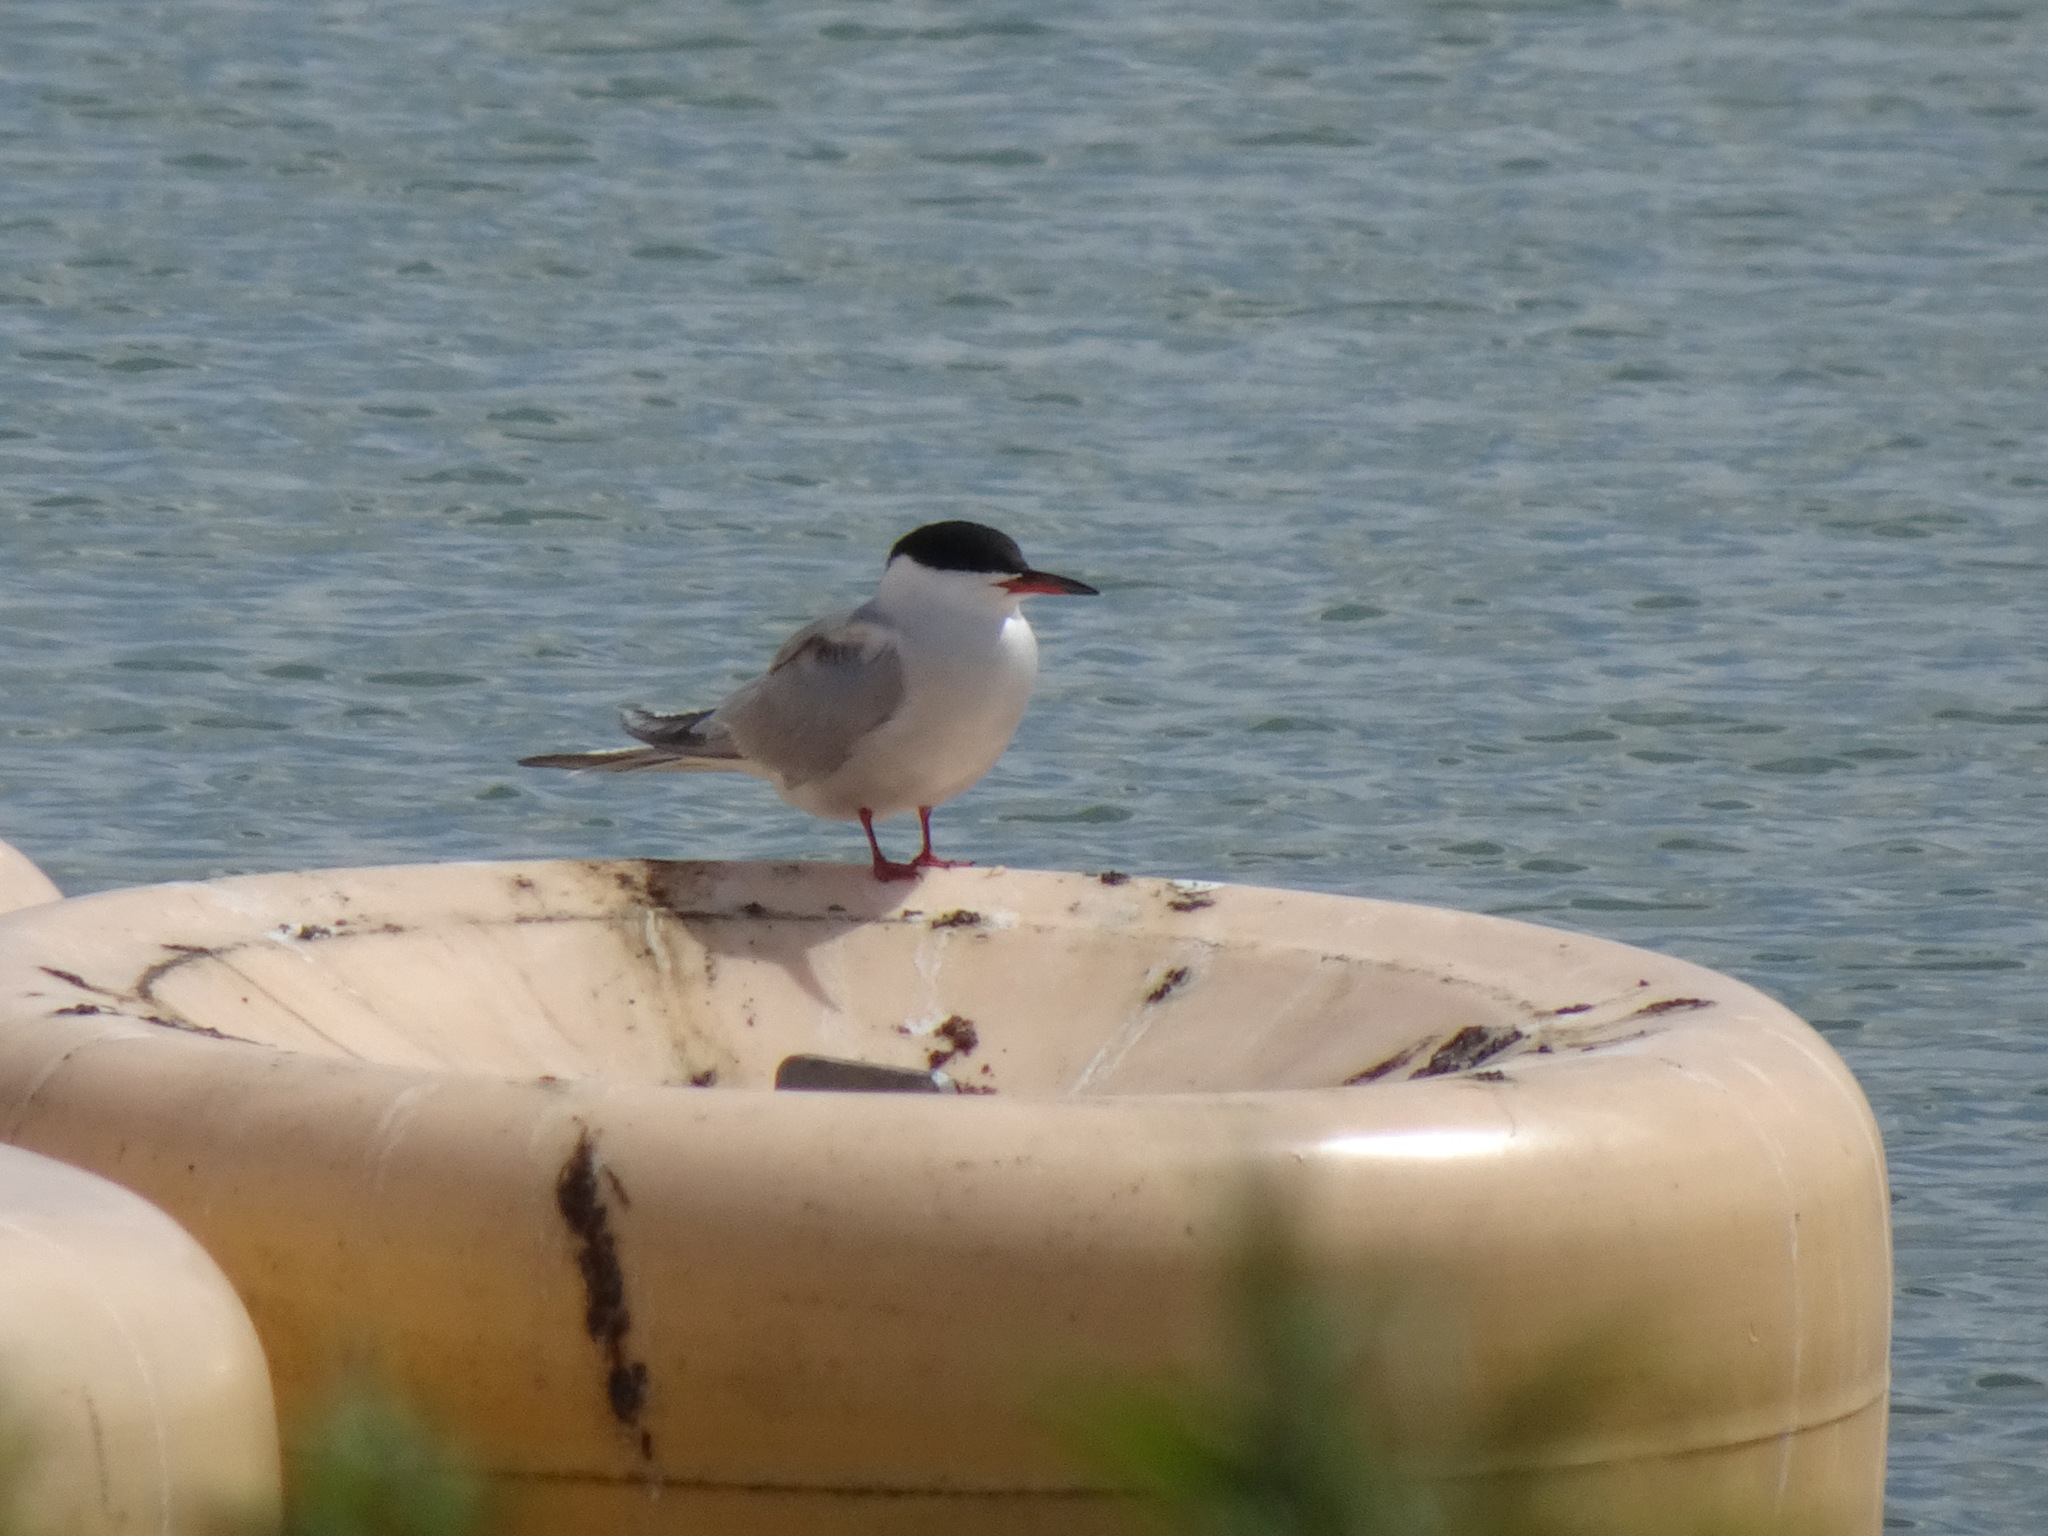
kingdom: Animalia
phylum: Chordata
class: Aves
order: Charadriiformes
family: Laridae
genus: Sterna
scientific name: Sterna hirundo
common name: Common tern
